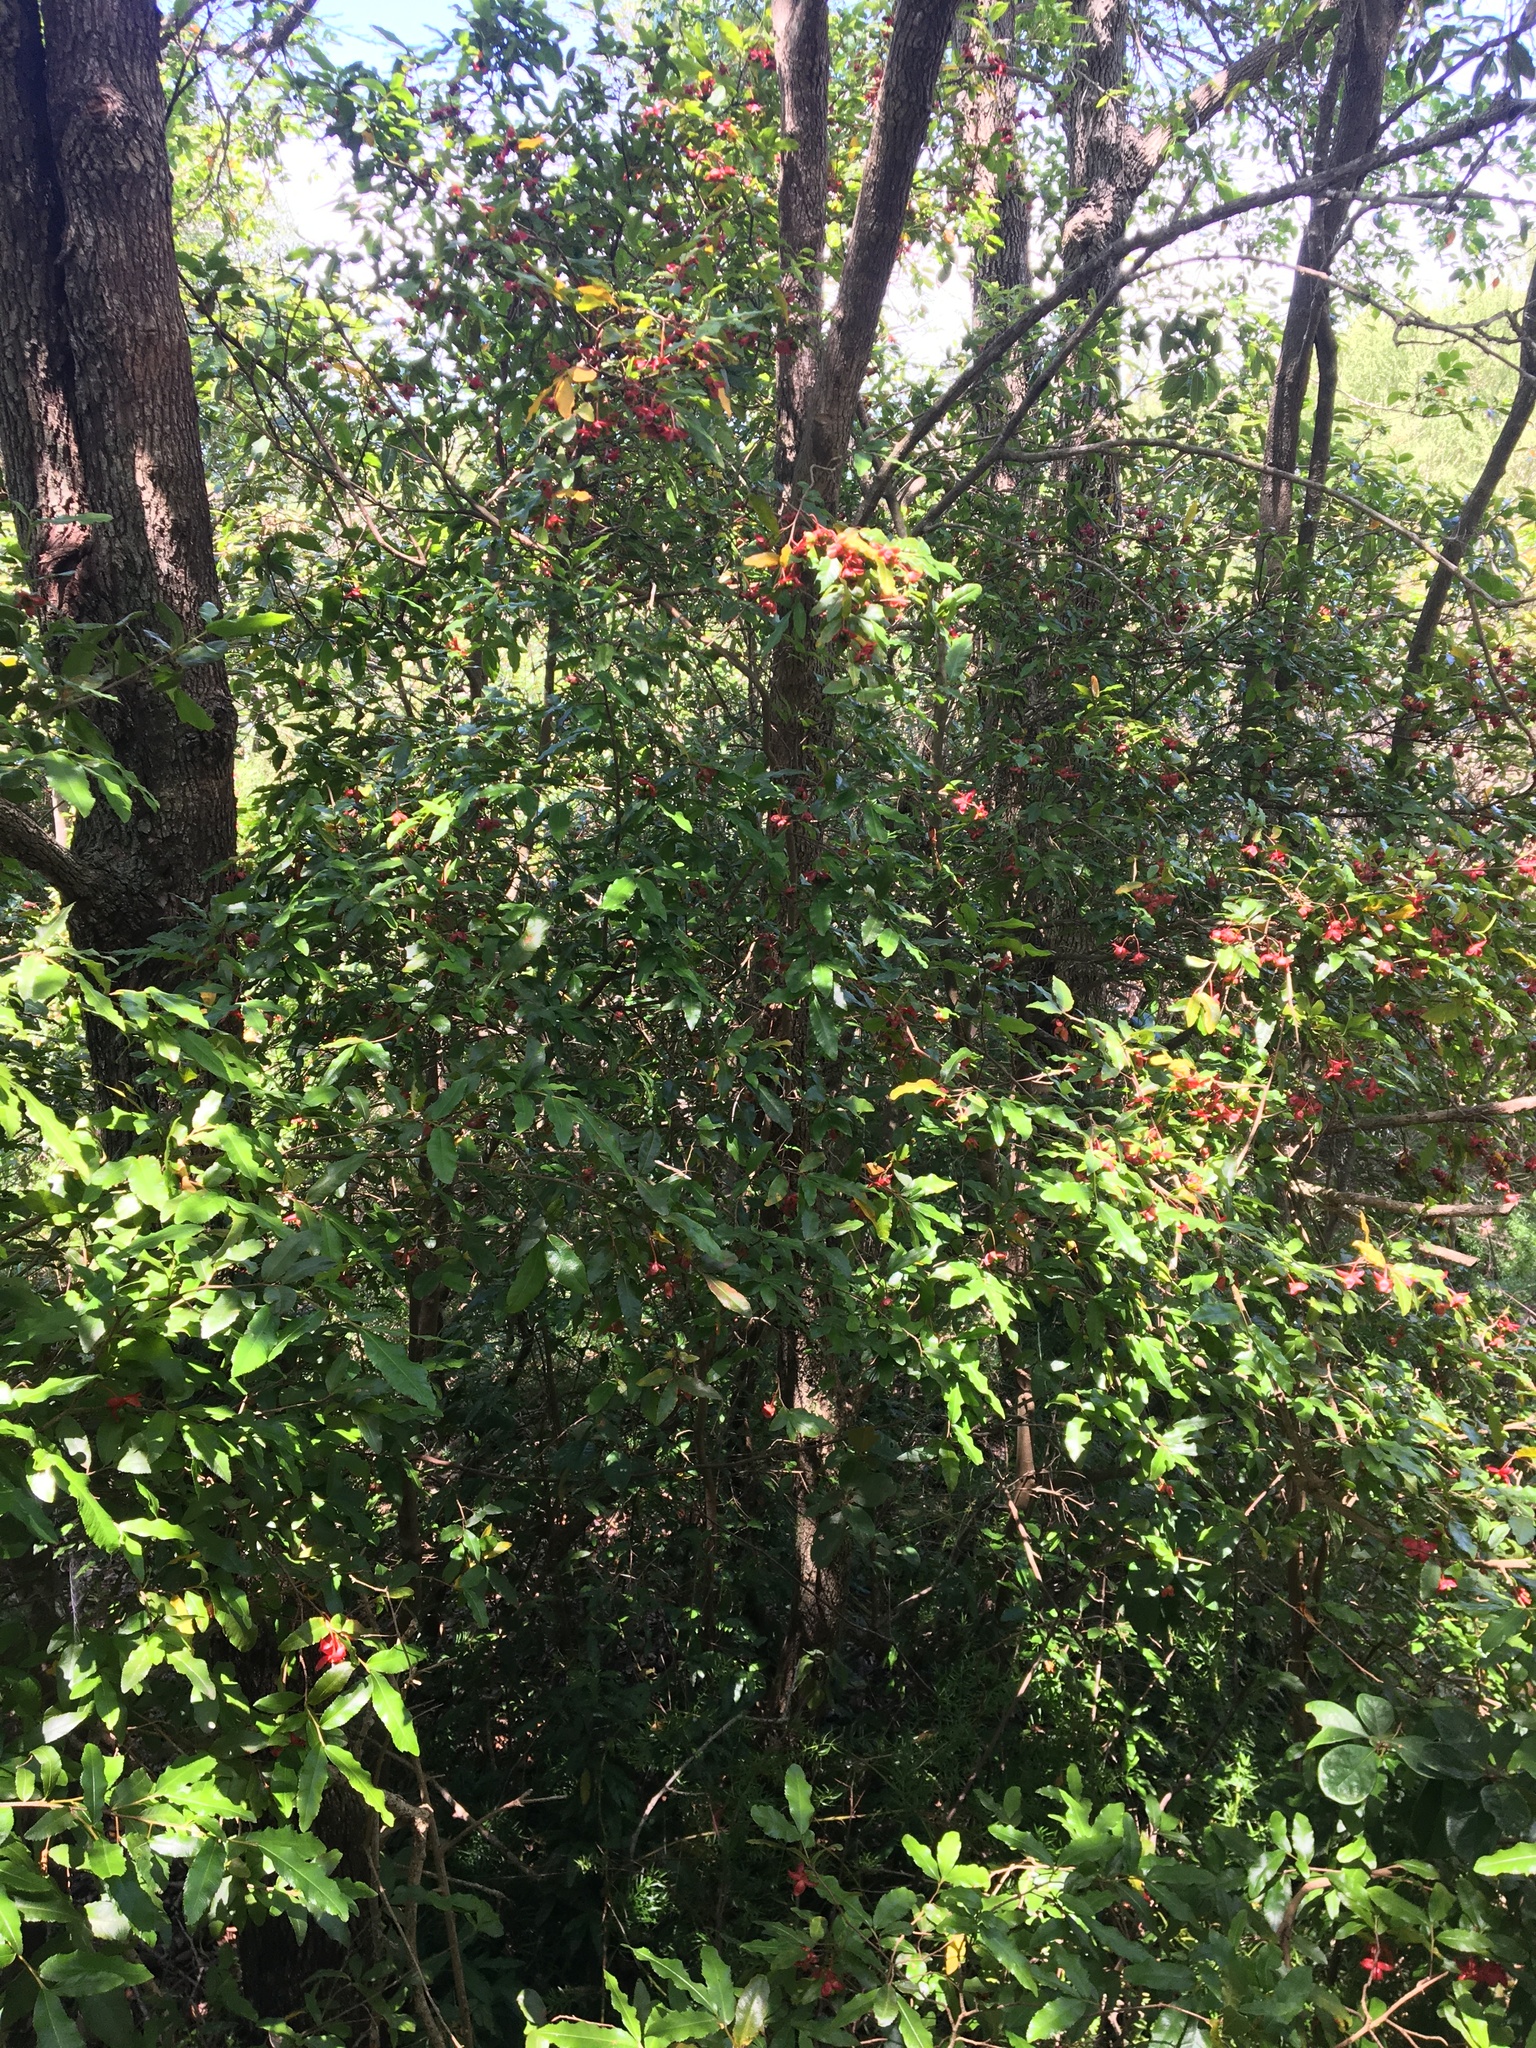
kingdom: Plantae
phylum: Tracheophyta
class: Magnoliopsida
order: Malpighiales
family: Ochnaceae
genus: Ochna
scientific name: Ochna serrulata
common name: Mickey mouse plant
